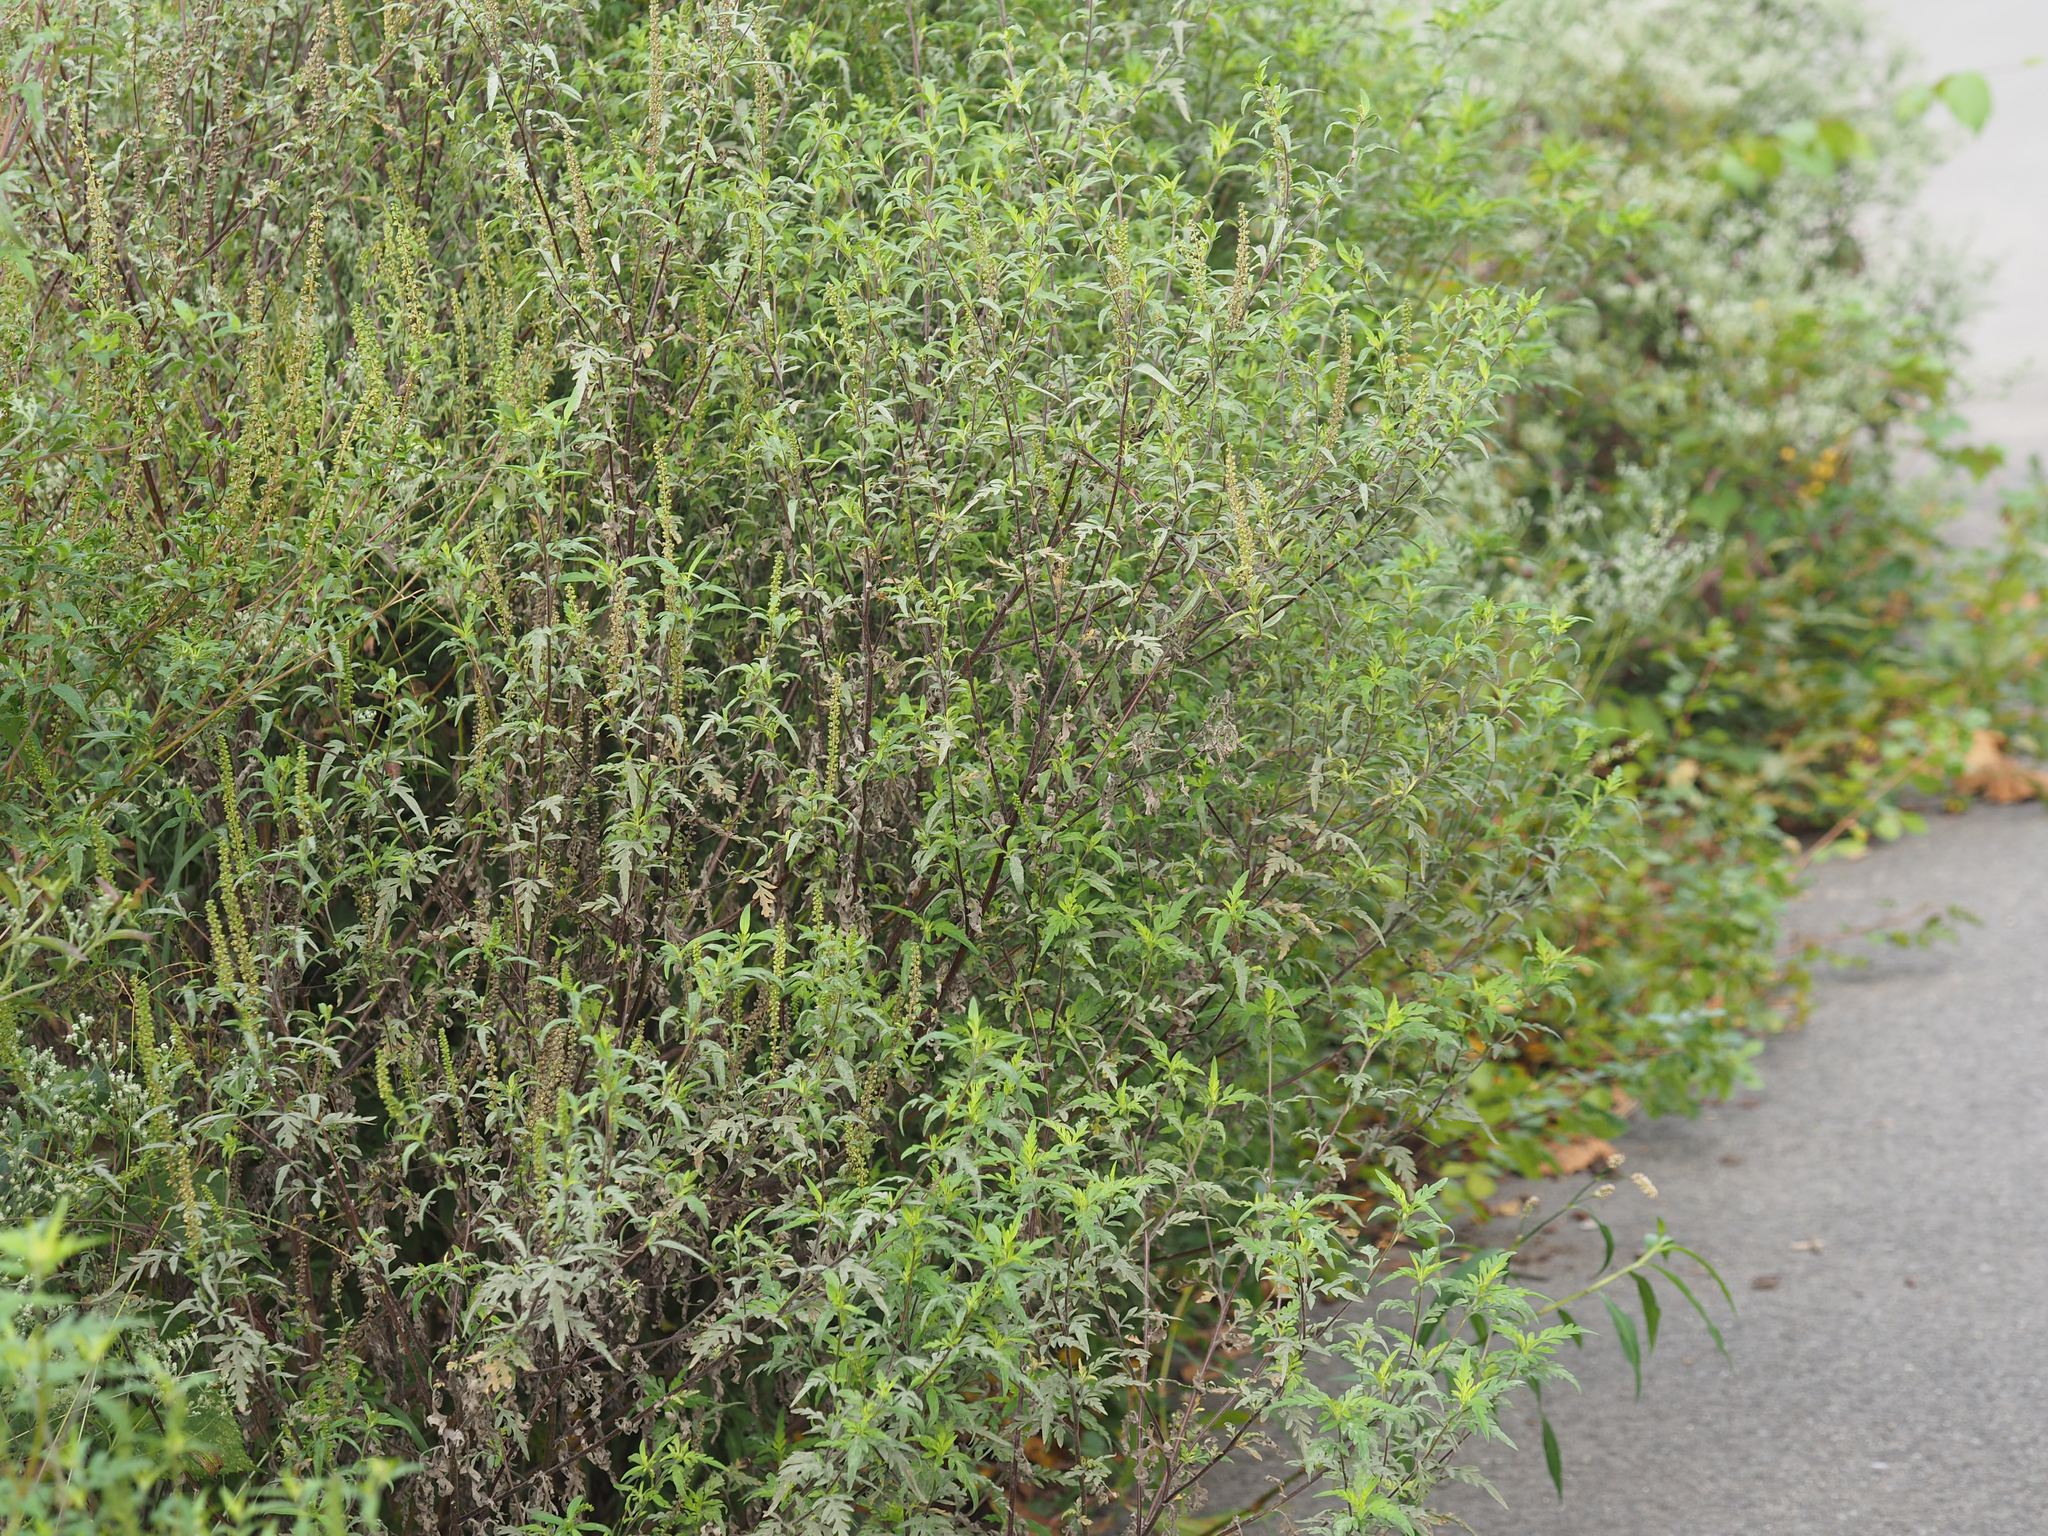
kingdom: Plantae
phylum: Tracheophyta
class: Magnoliopsida
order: Asterales
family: Asteraceae
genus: Ambrosia
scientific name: Ambrosia artemisiifolia
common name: Annual ragweed
